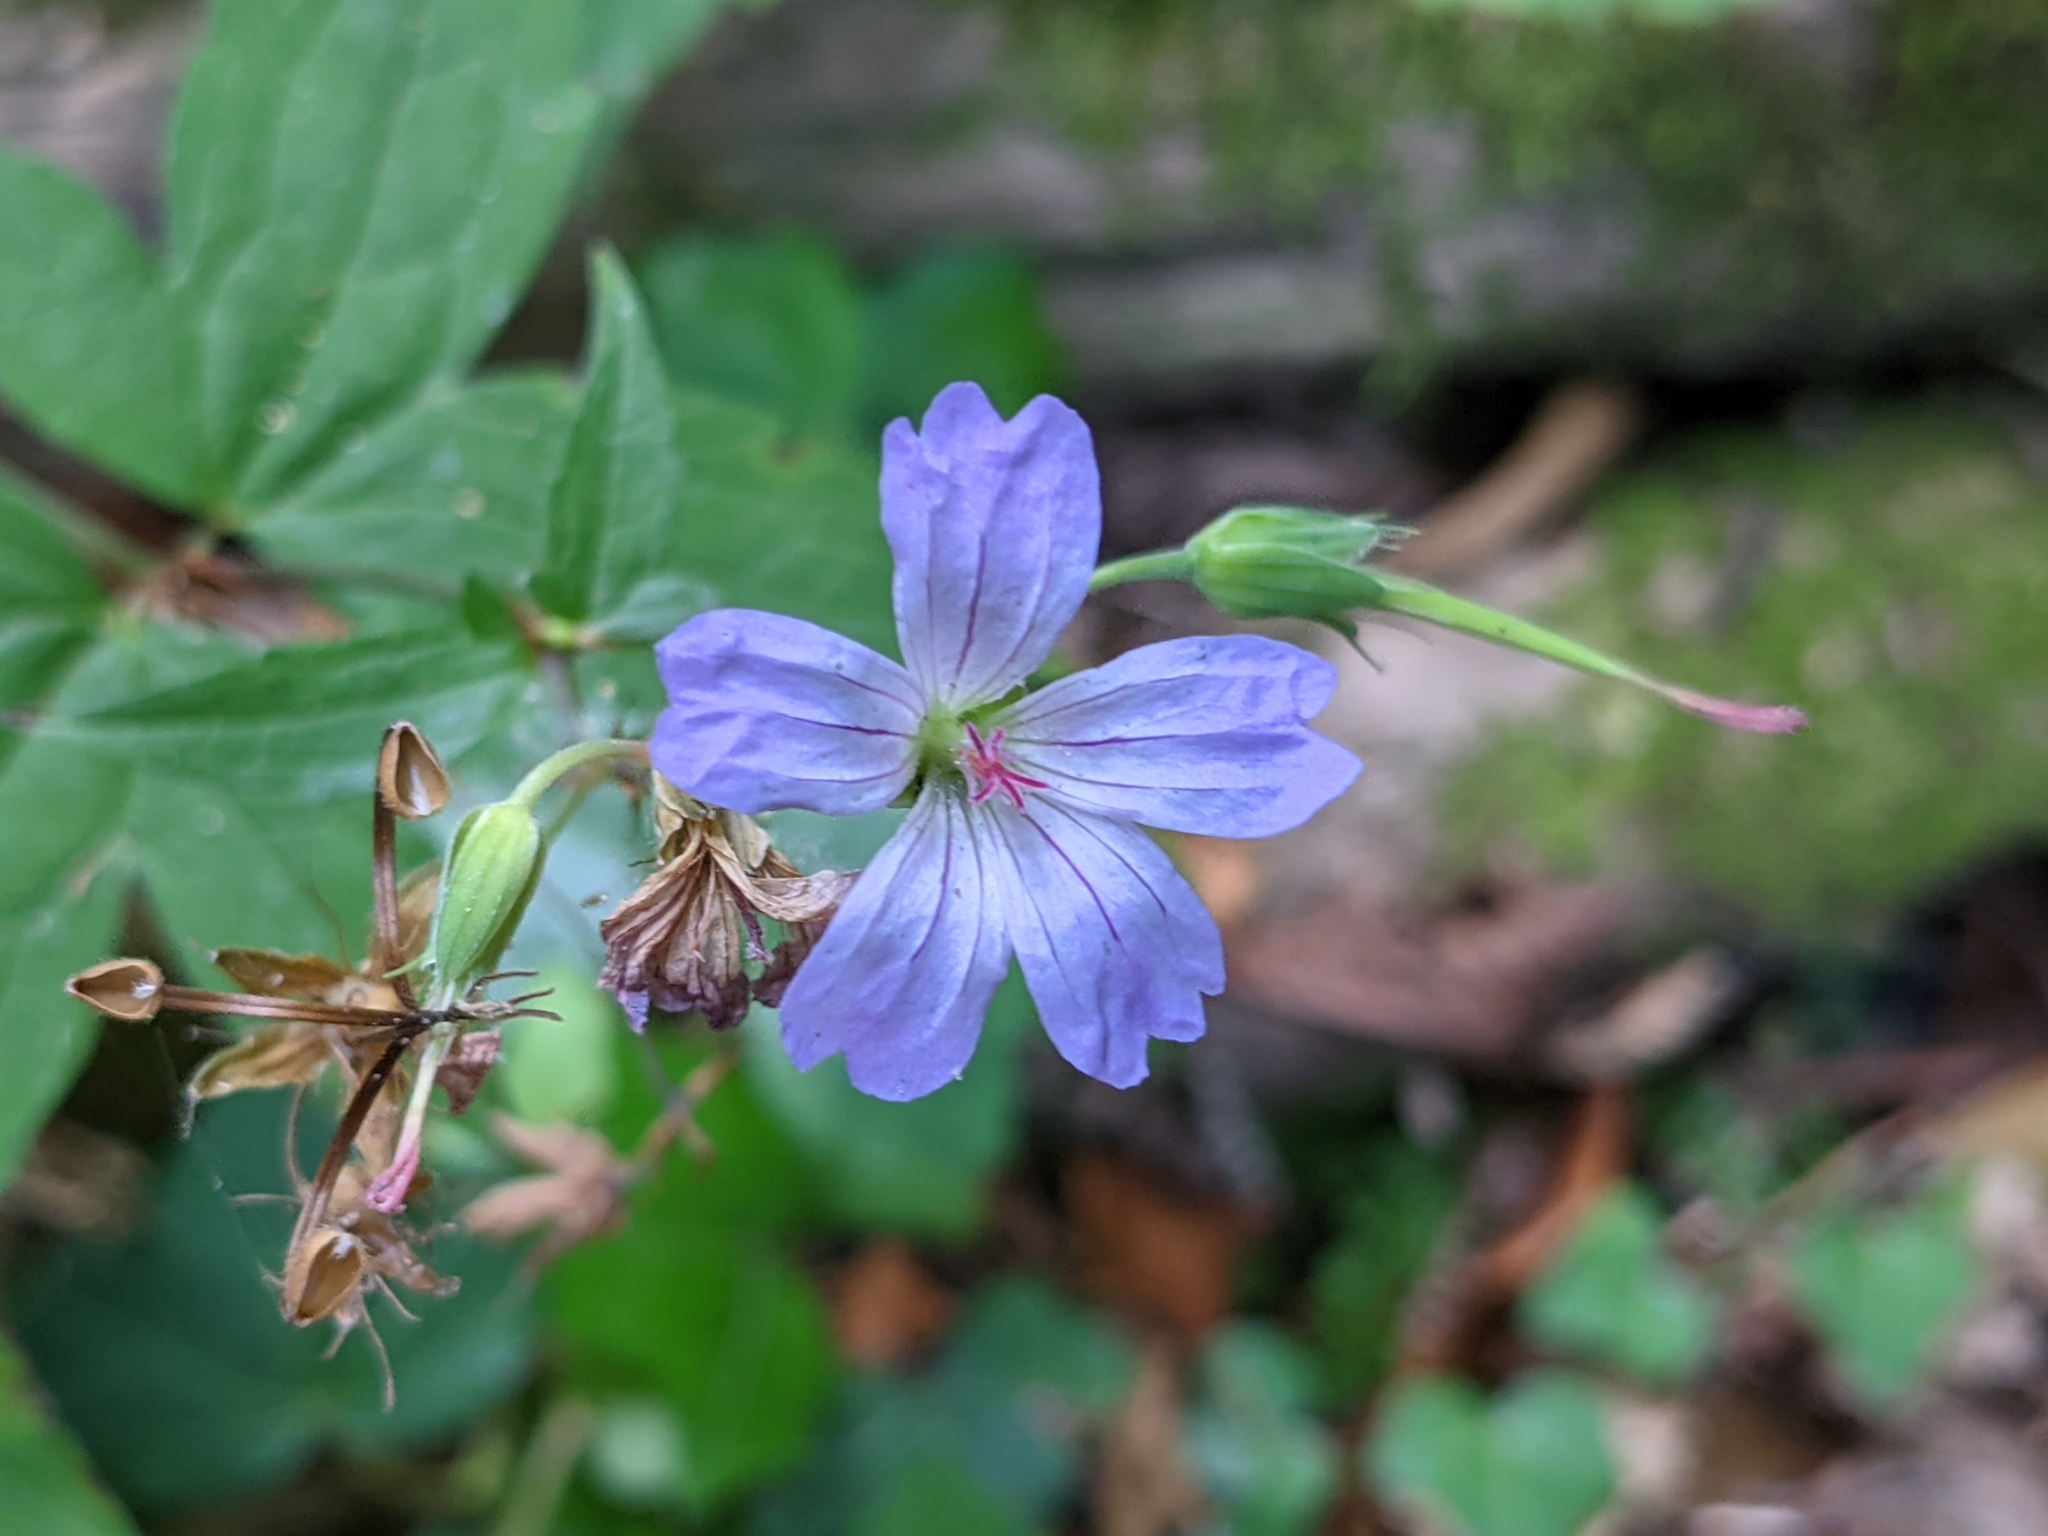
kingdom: Plantae
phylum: Tracheophyta
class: Magnoliopsida
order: Geraniales
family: Geraniaceae
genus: Geranium
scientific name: Geranium nodosum
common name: Knotted crane's-bill
